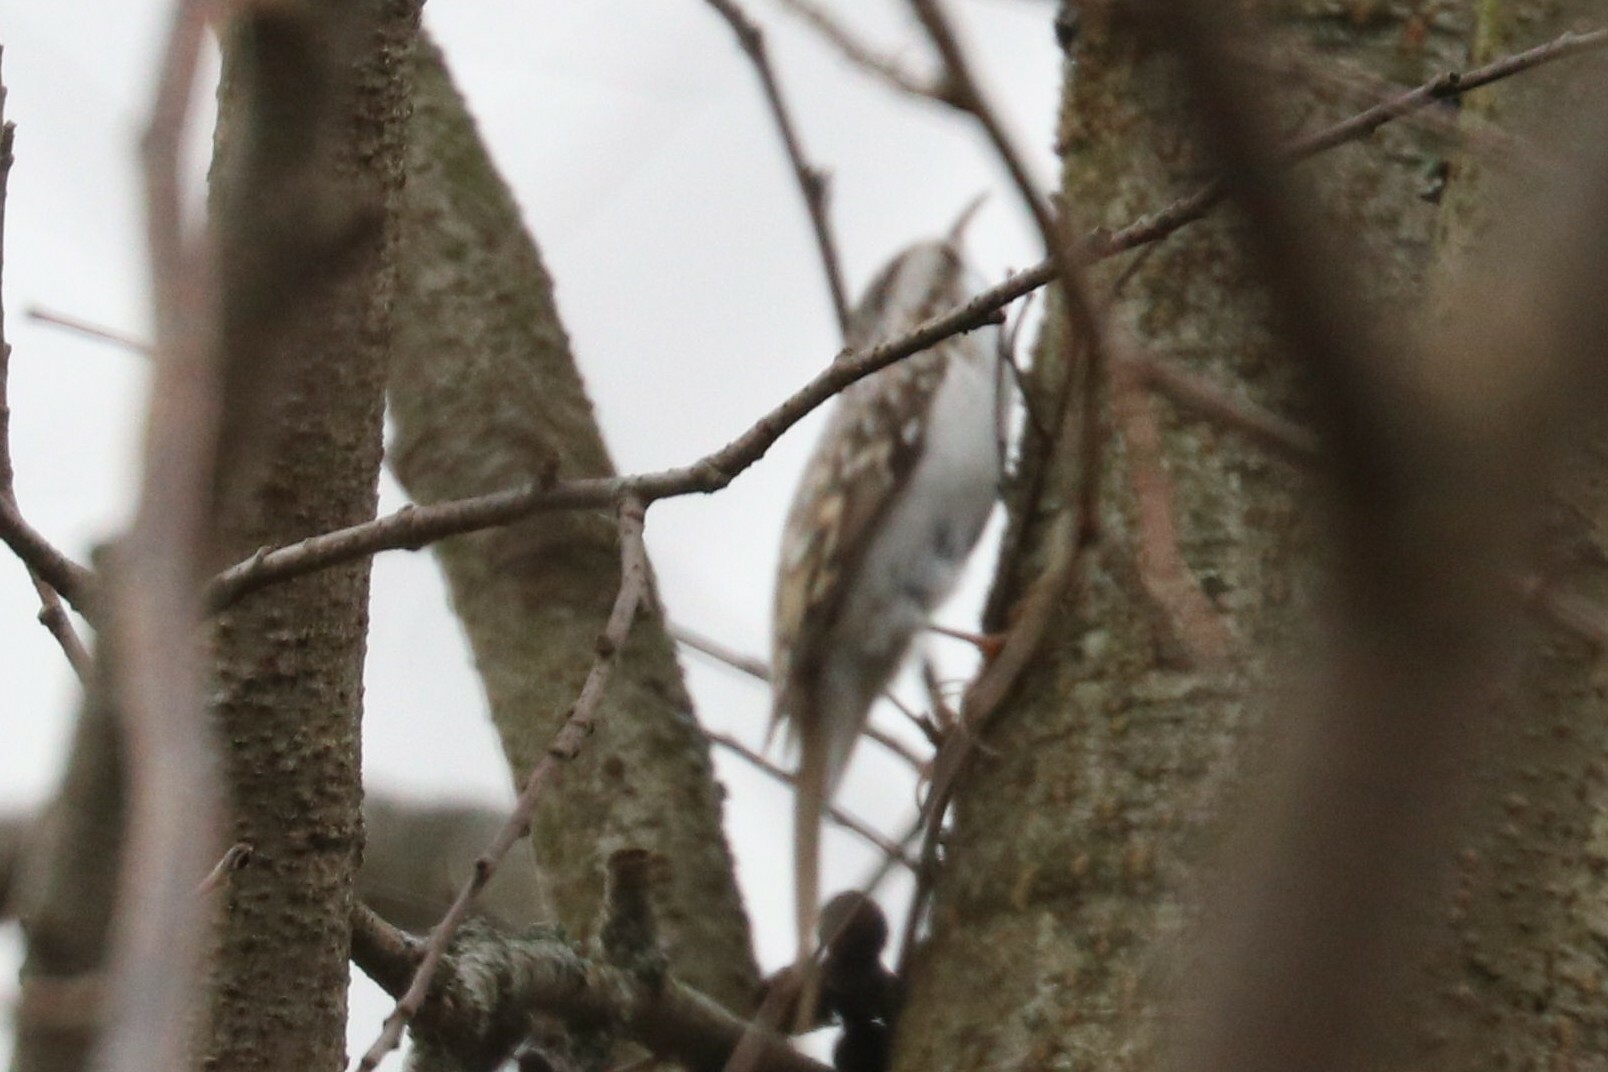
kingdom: Animalia
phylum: Chordata
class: Aves
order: Passeriformes
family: Certhiidae
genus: Certhia
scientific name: Certhia familiaris
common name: Eurasian treecreeper
